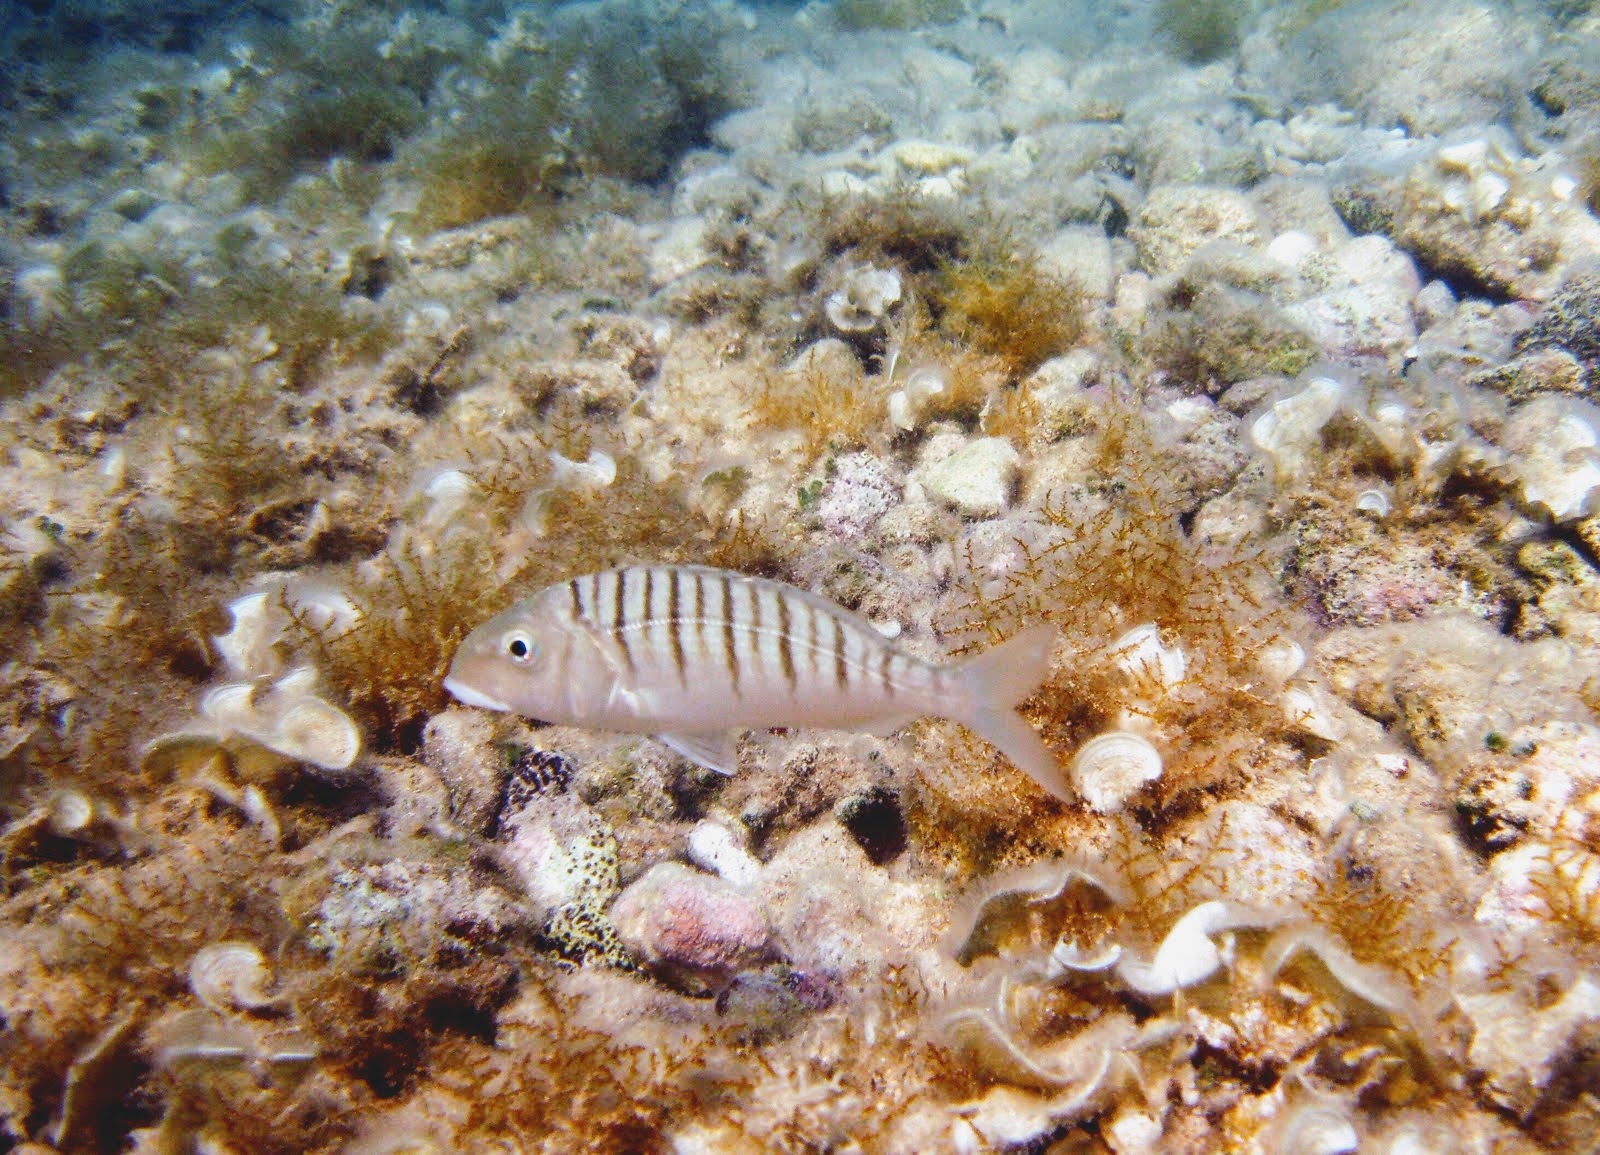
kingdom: Animalia
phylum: Chordata
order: Perciformes
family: Sparidae
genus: Lithognathus
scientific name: Lithognathus mormyrus
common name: Sand steenbras
